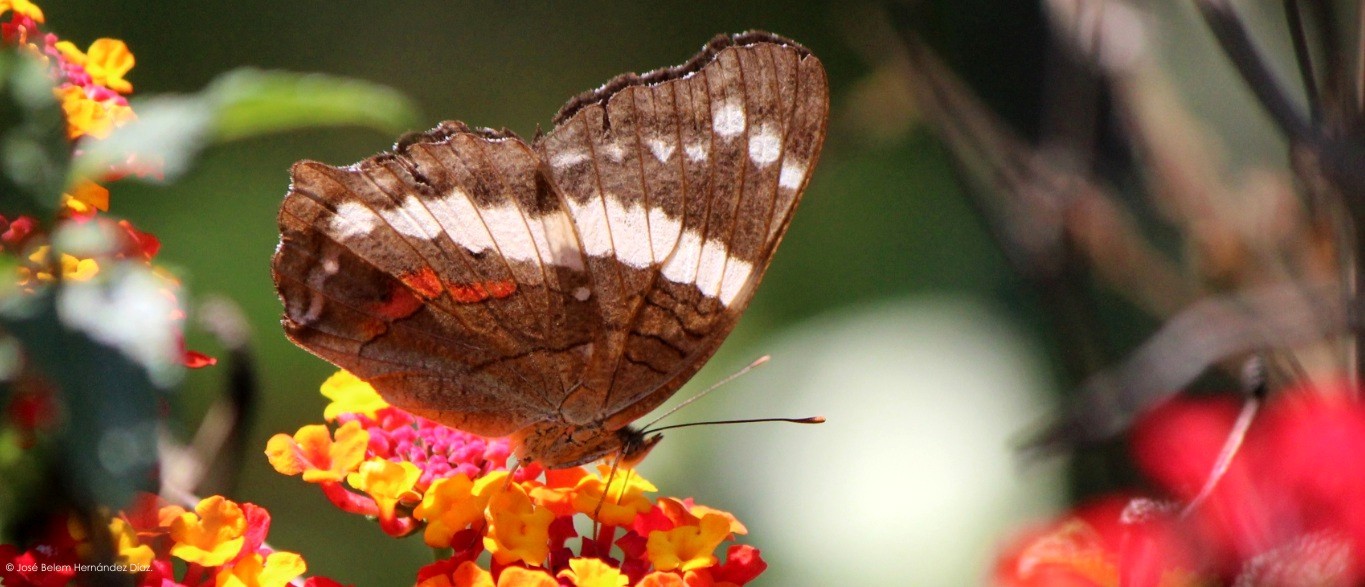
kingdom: Animalia
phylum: Arthropoda
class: Insecta
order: Lepidoptera
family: Nymphalidae
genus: Anartia
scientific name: Anartia fatima
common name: Banded peacock
